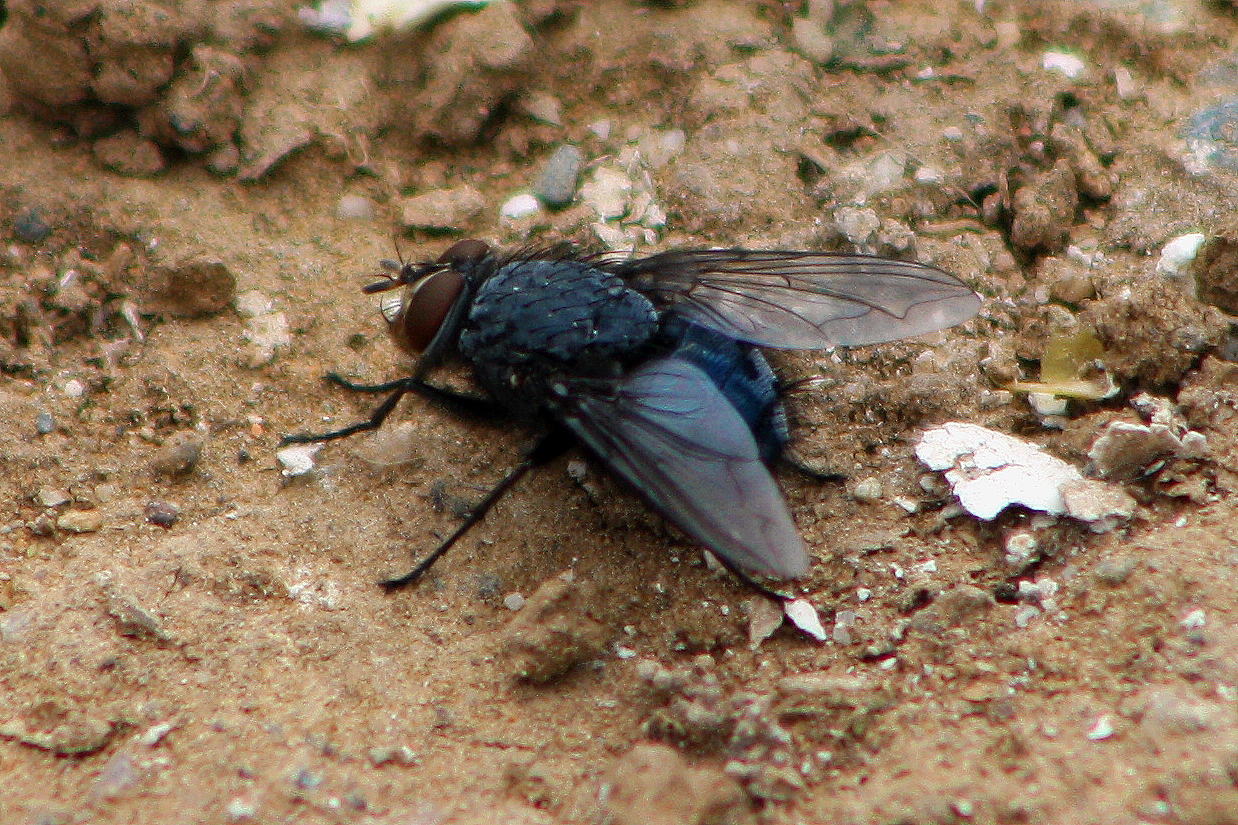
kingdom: Animalia
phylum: Arthropoda
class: Insecta
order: Diptera
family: Calliphoridae
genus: Calliphora
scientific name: Calliphora vicina
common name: Common blow flie
